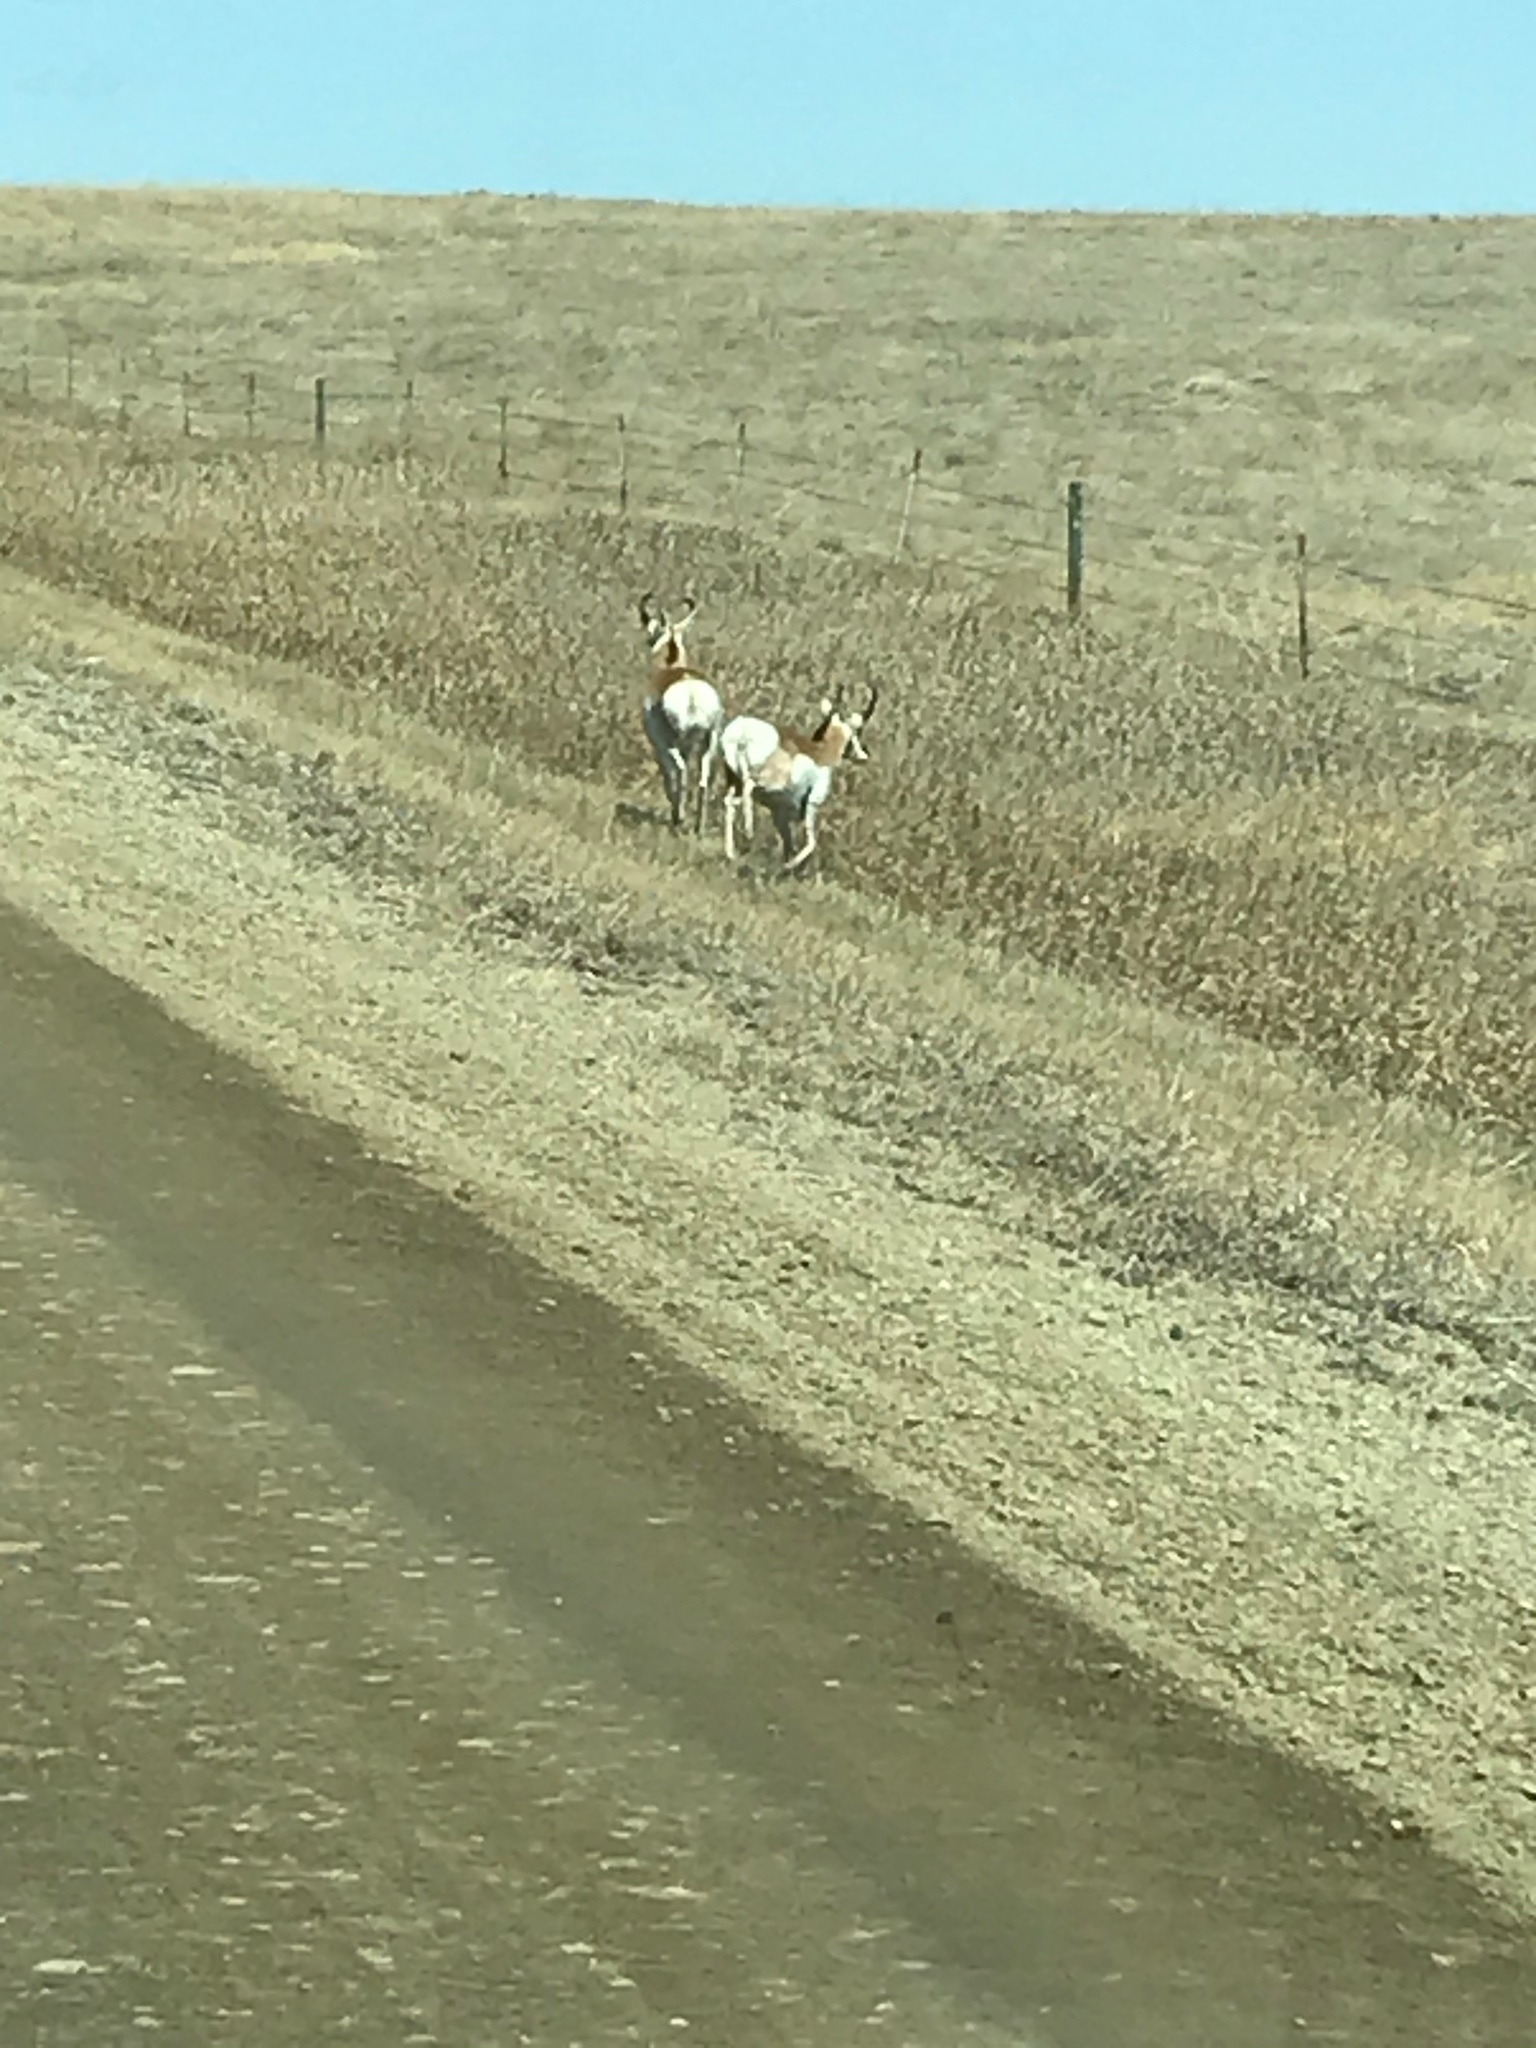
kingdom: Animalia
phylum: Chordata
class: Mammalia
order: Artiodactyla
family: Antilocapridae
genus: Antilocapra
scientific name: Antilocapra americana
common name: Pronghorn
